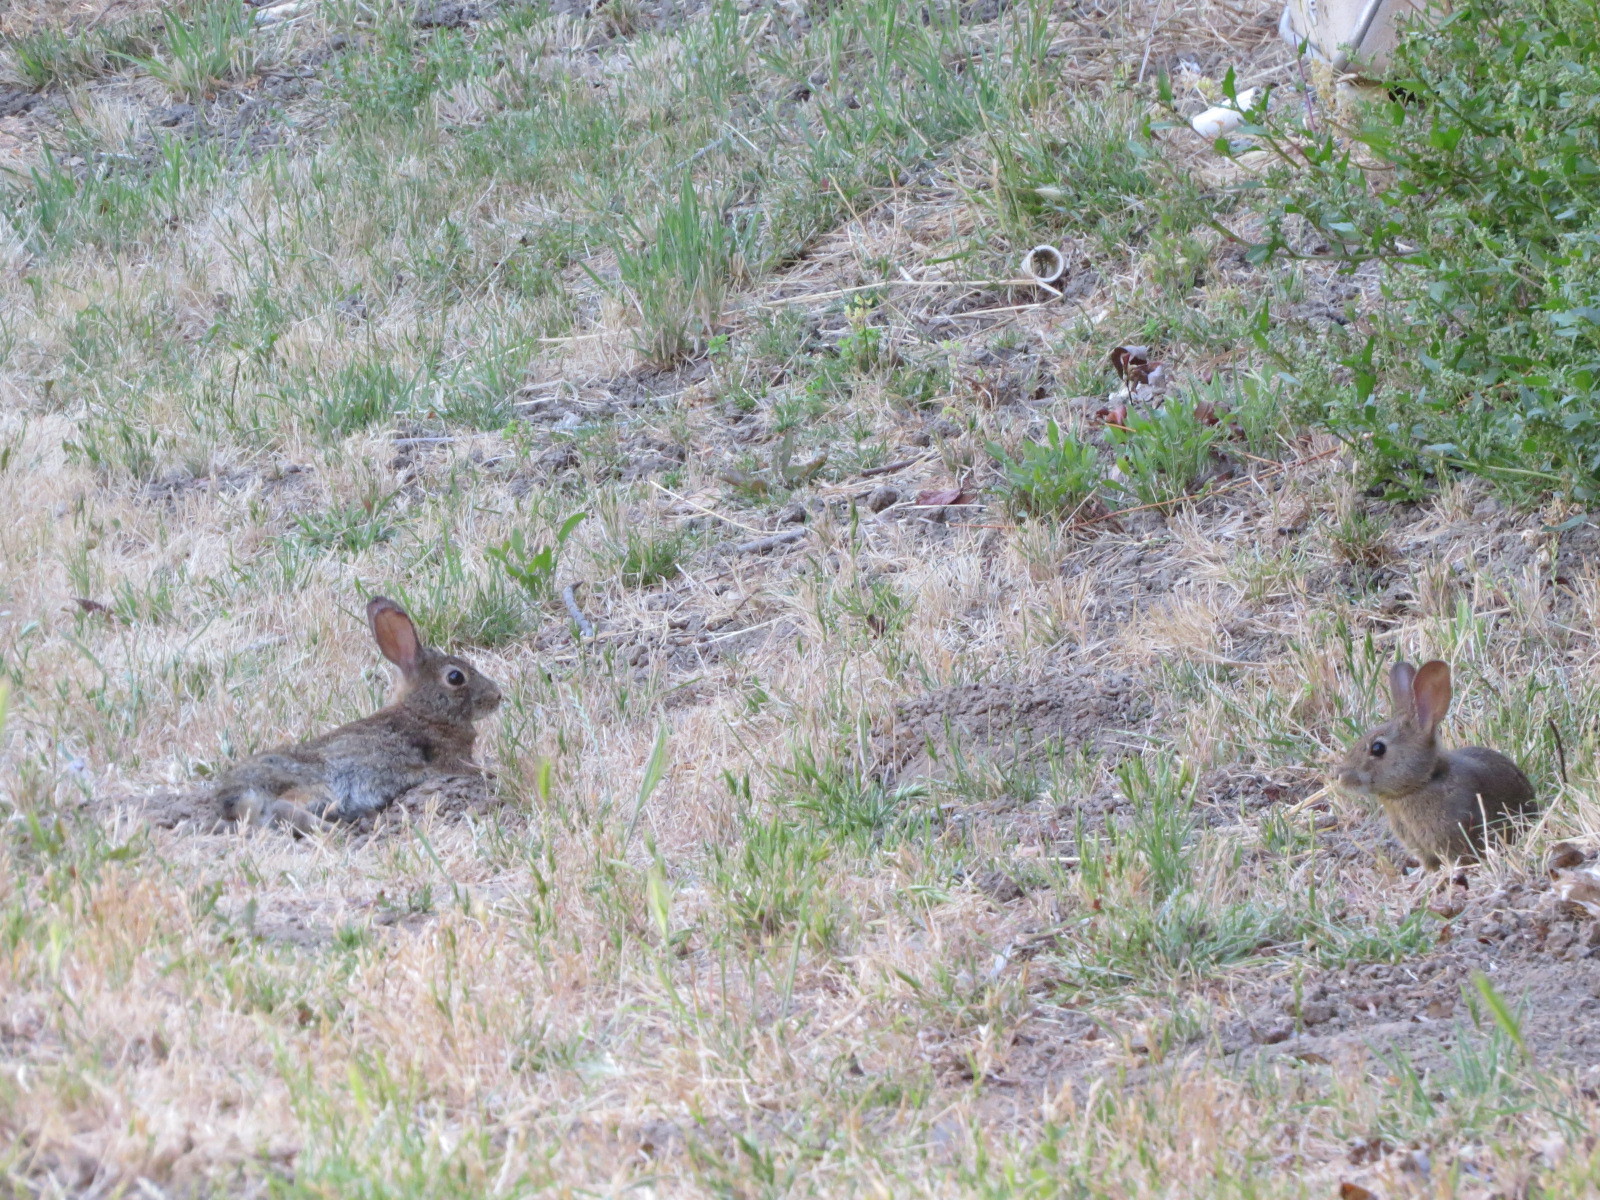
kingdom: Animalia
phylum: Chordata
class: Mammalia
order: Lagomorpha
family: Leporidae
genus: Sylvilagus
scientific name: Sylvilagus bachmani
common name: Brush rabbit
